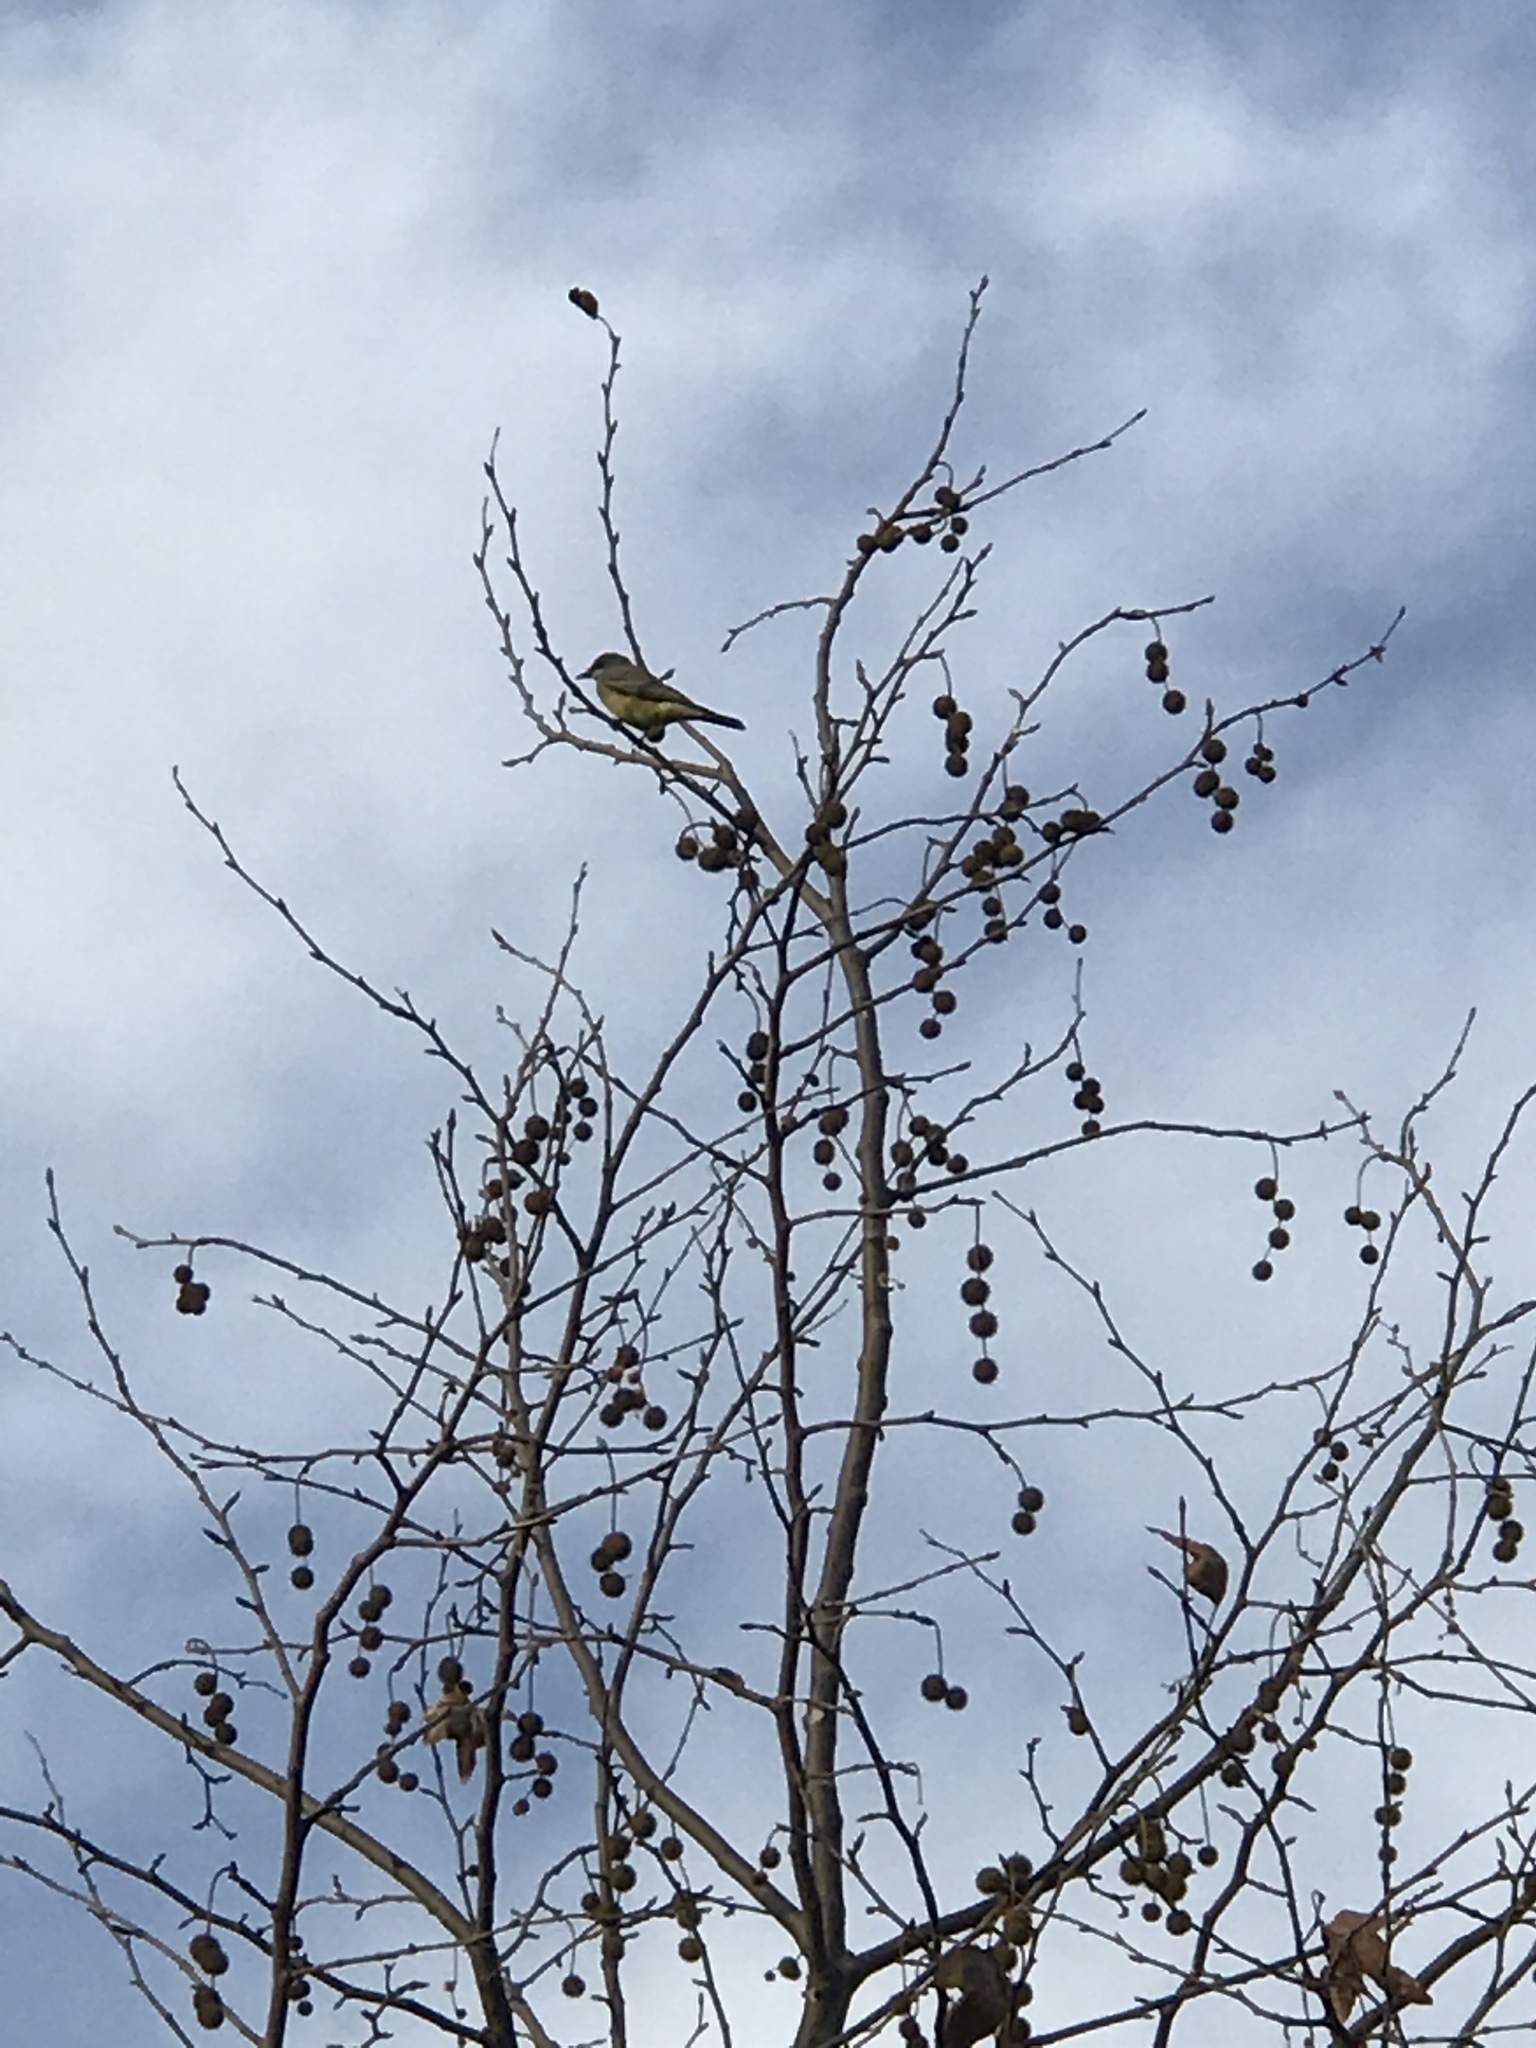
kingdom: Animalia
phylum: Chordata
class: Aves
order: Passeriformes
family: Tyrannidae
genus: Tyrannus
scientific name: Tyrannus vociferans
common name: Cassin's kingbird
